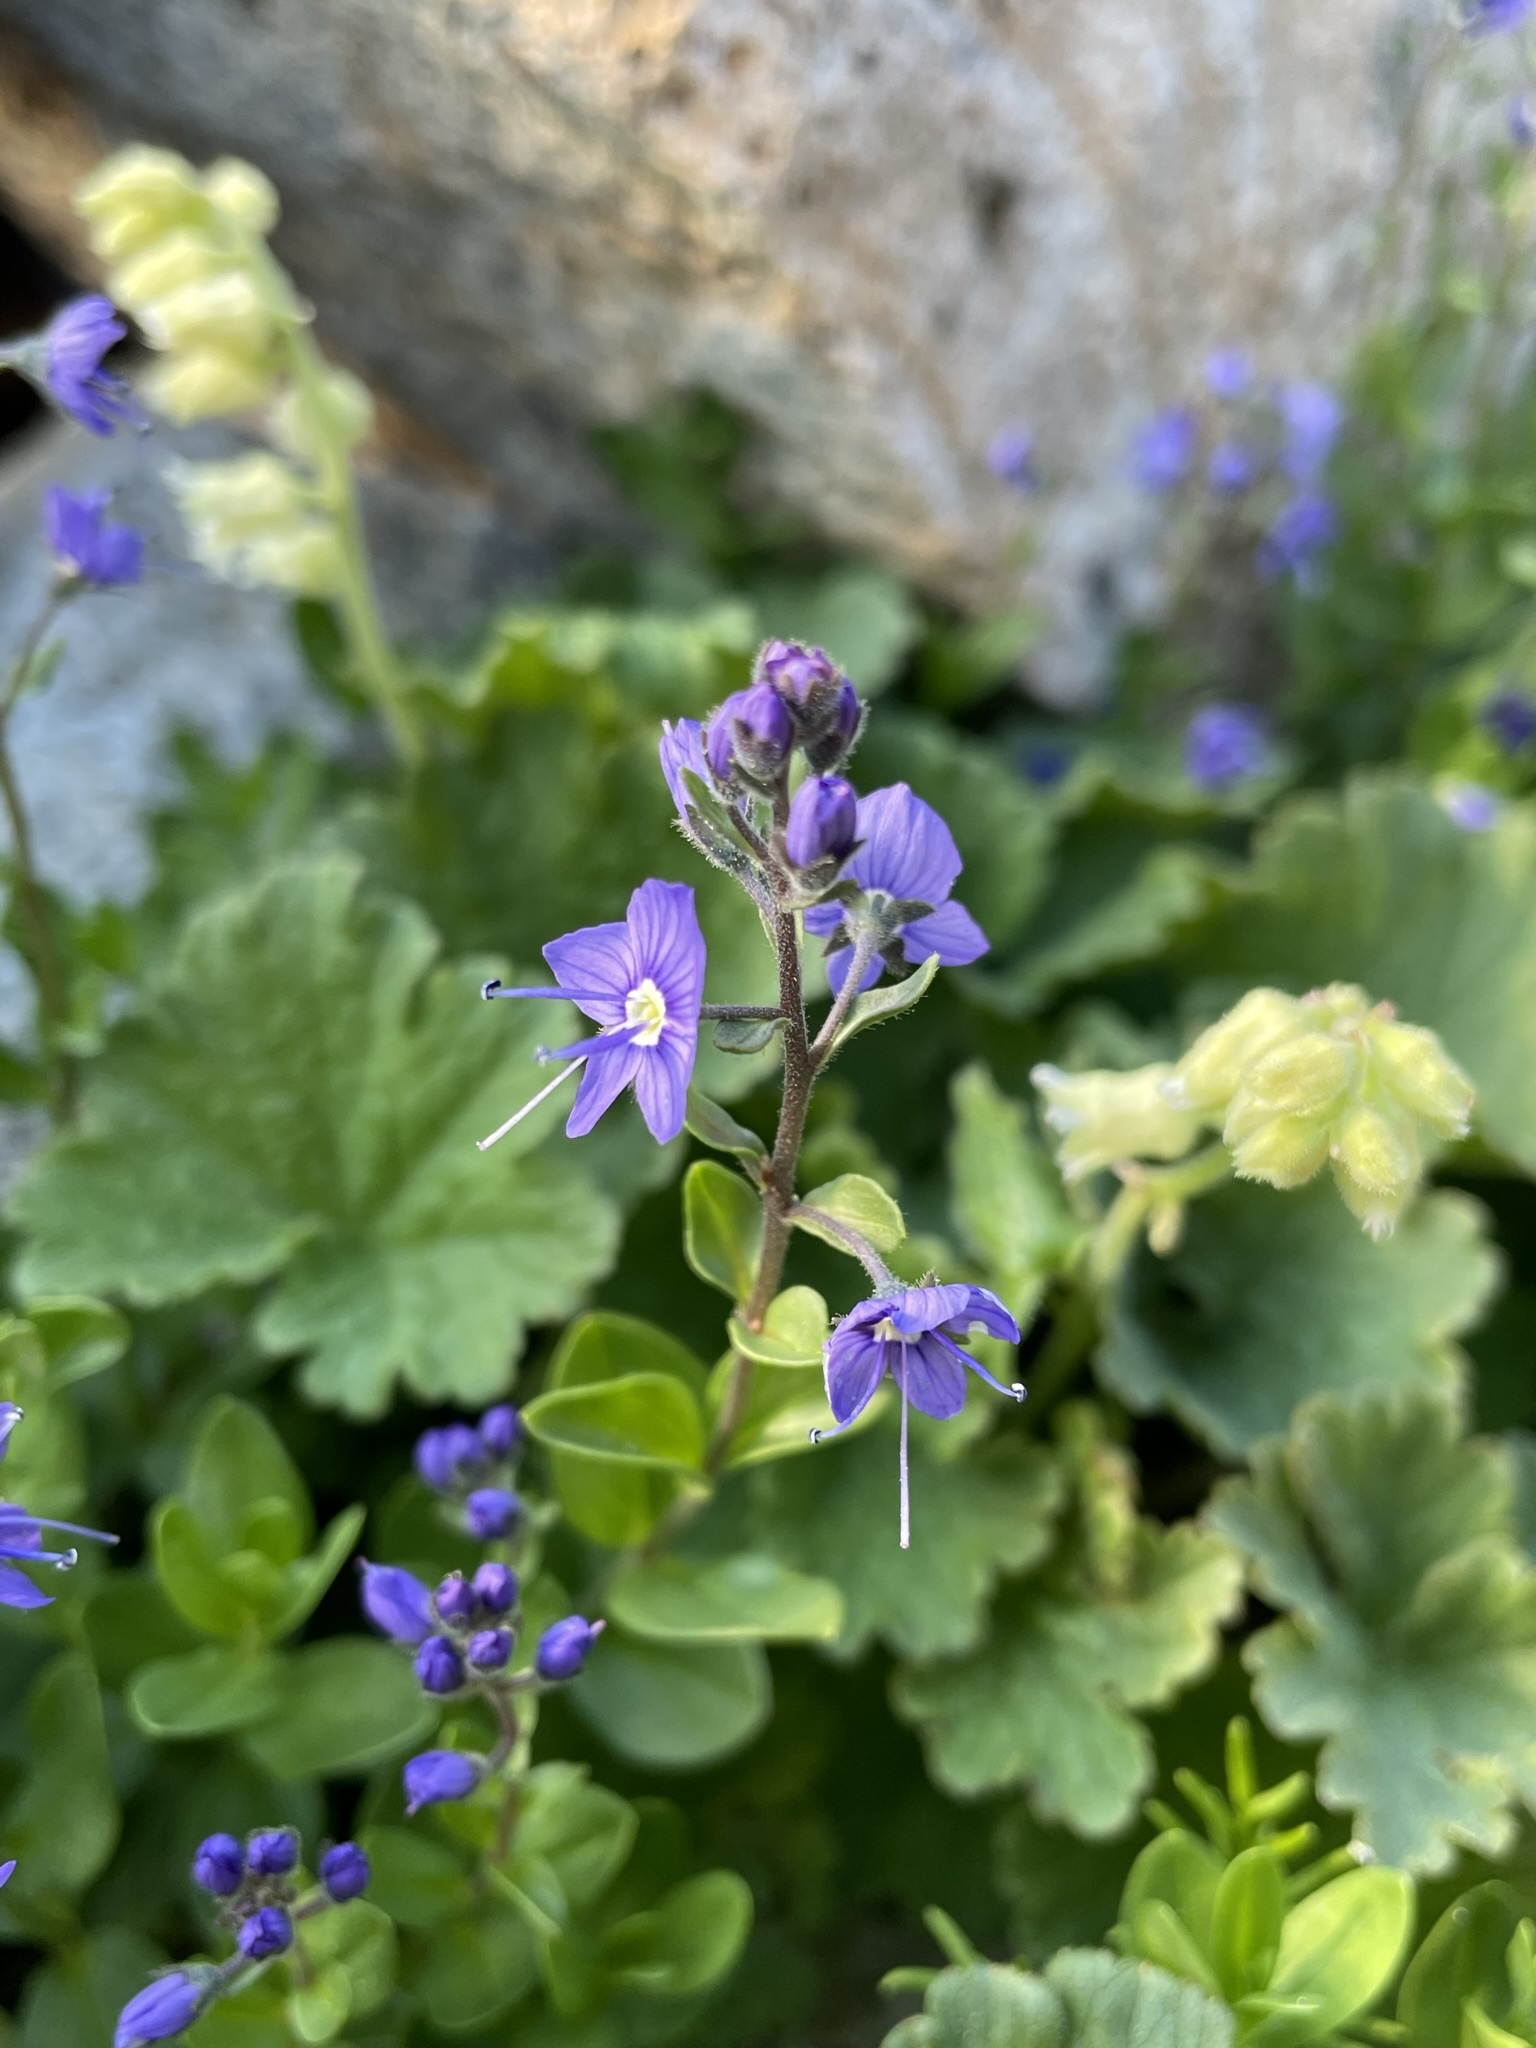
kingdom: Plantae
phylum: Tracheophyta
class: Magnoliopsida
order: Lamiales
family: Plantaginaceae
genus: Veronica
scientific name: Veronica cusickii
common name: Cusick's speedwell
